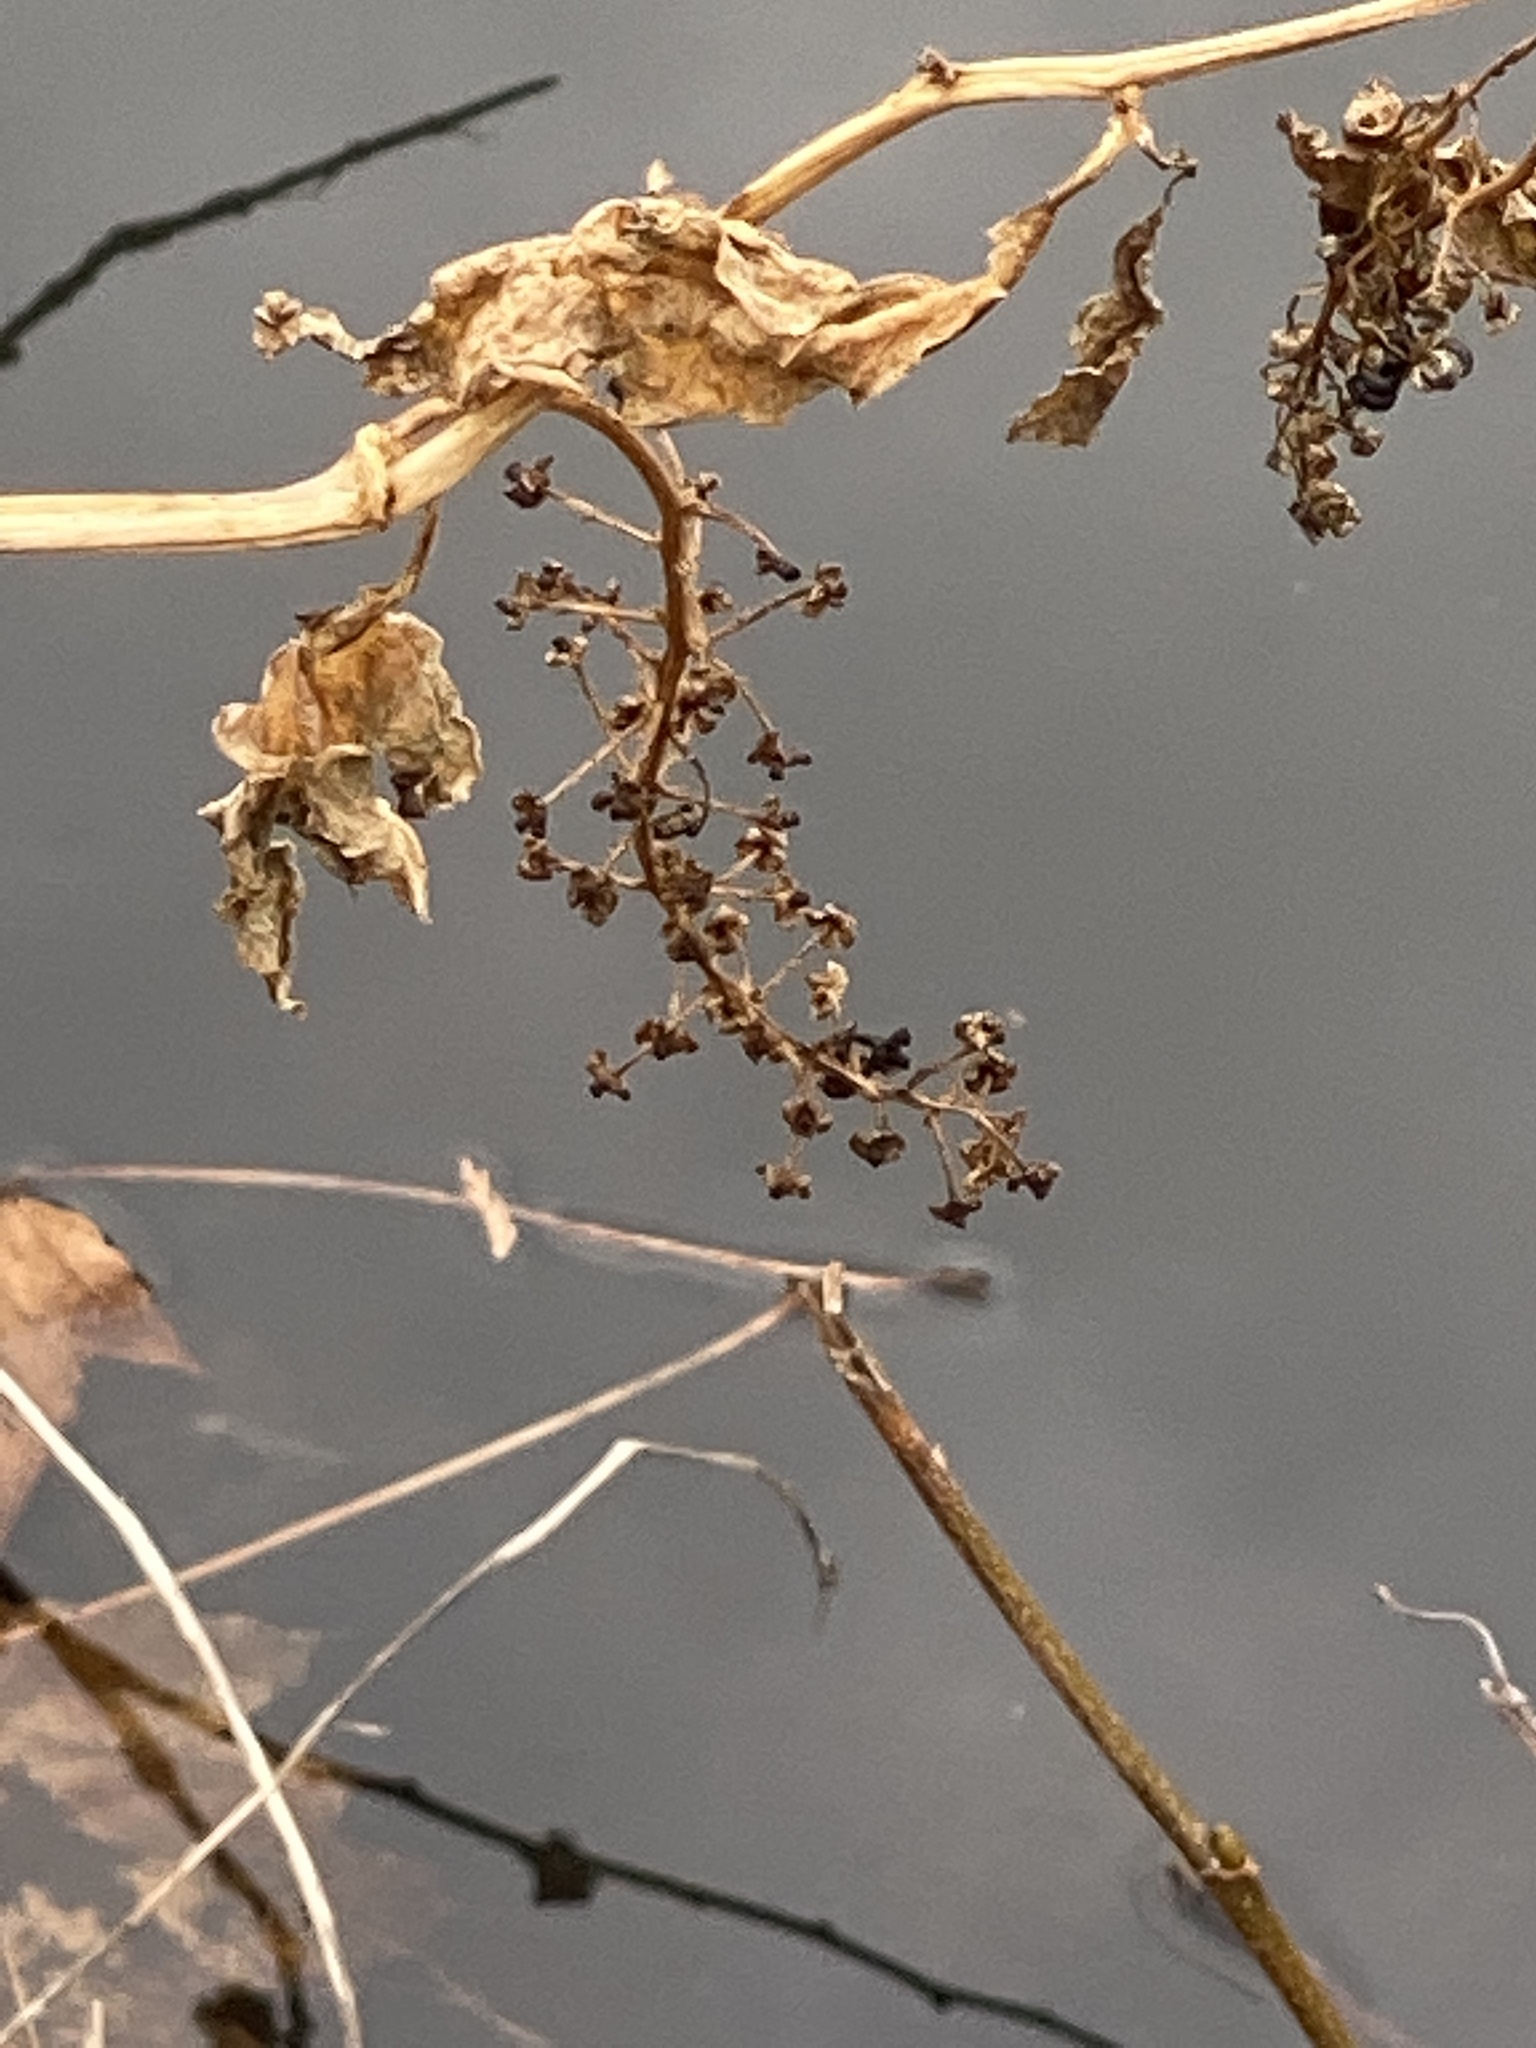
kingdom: Plantae
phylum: Tracheophyta
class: Magnoliopsida
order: Caryophyllales
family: Phytolaccaceae
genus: Phytolacca
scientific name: Phytolacca americana
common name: American pokeweed
